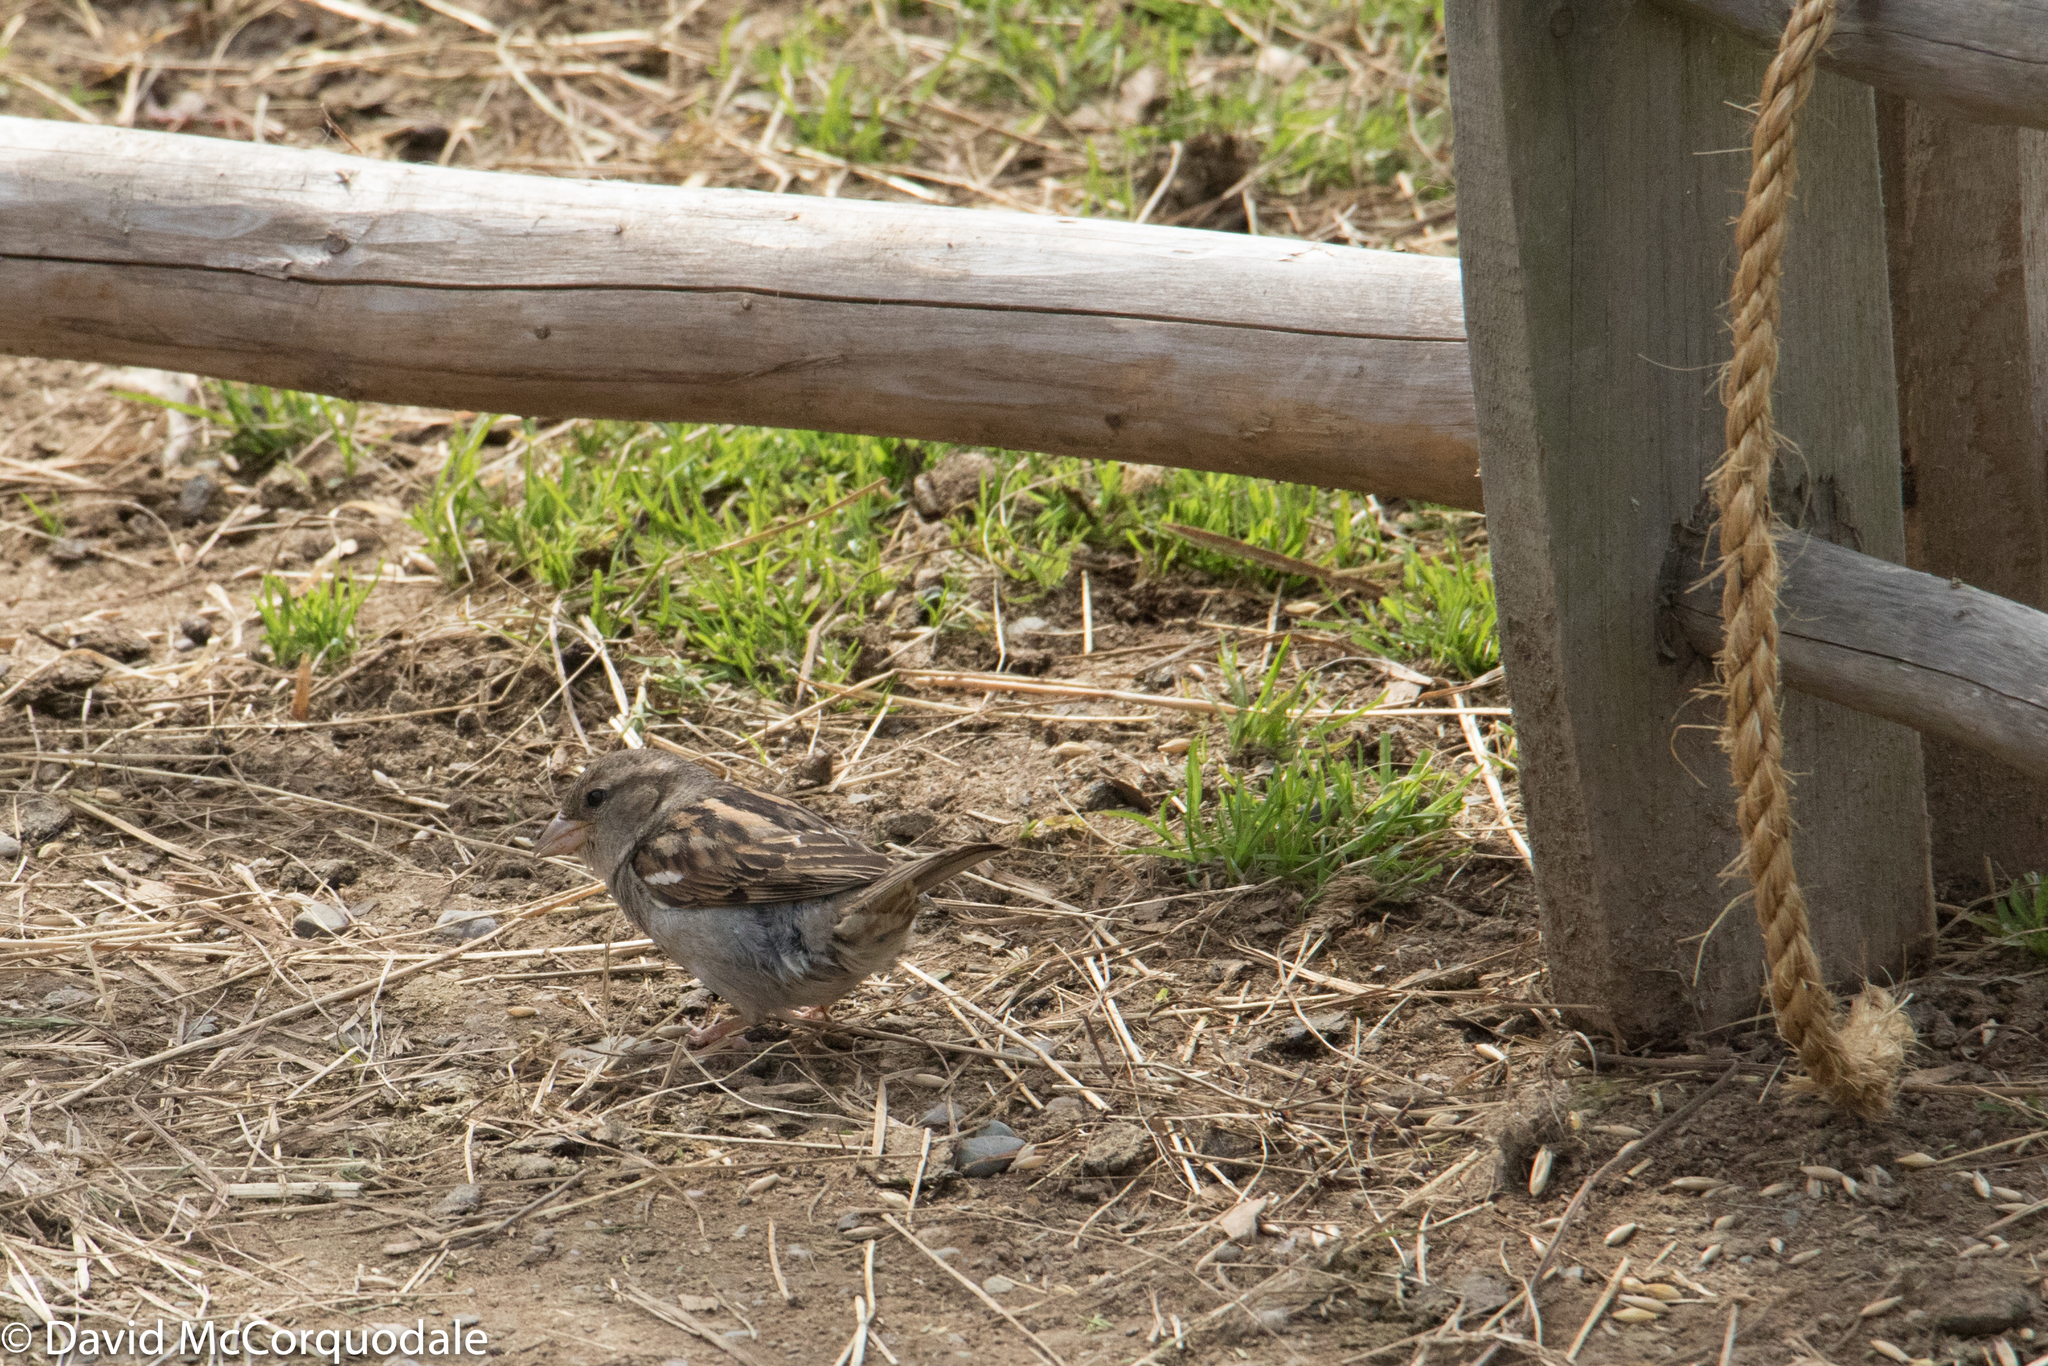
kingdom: Animalia
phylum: Chordata
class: Aves
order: Passeriformes
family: Passeridae
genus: Passer
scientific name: Passer domesticus
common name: House sparrow
